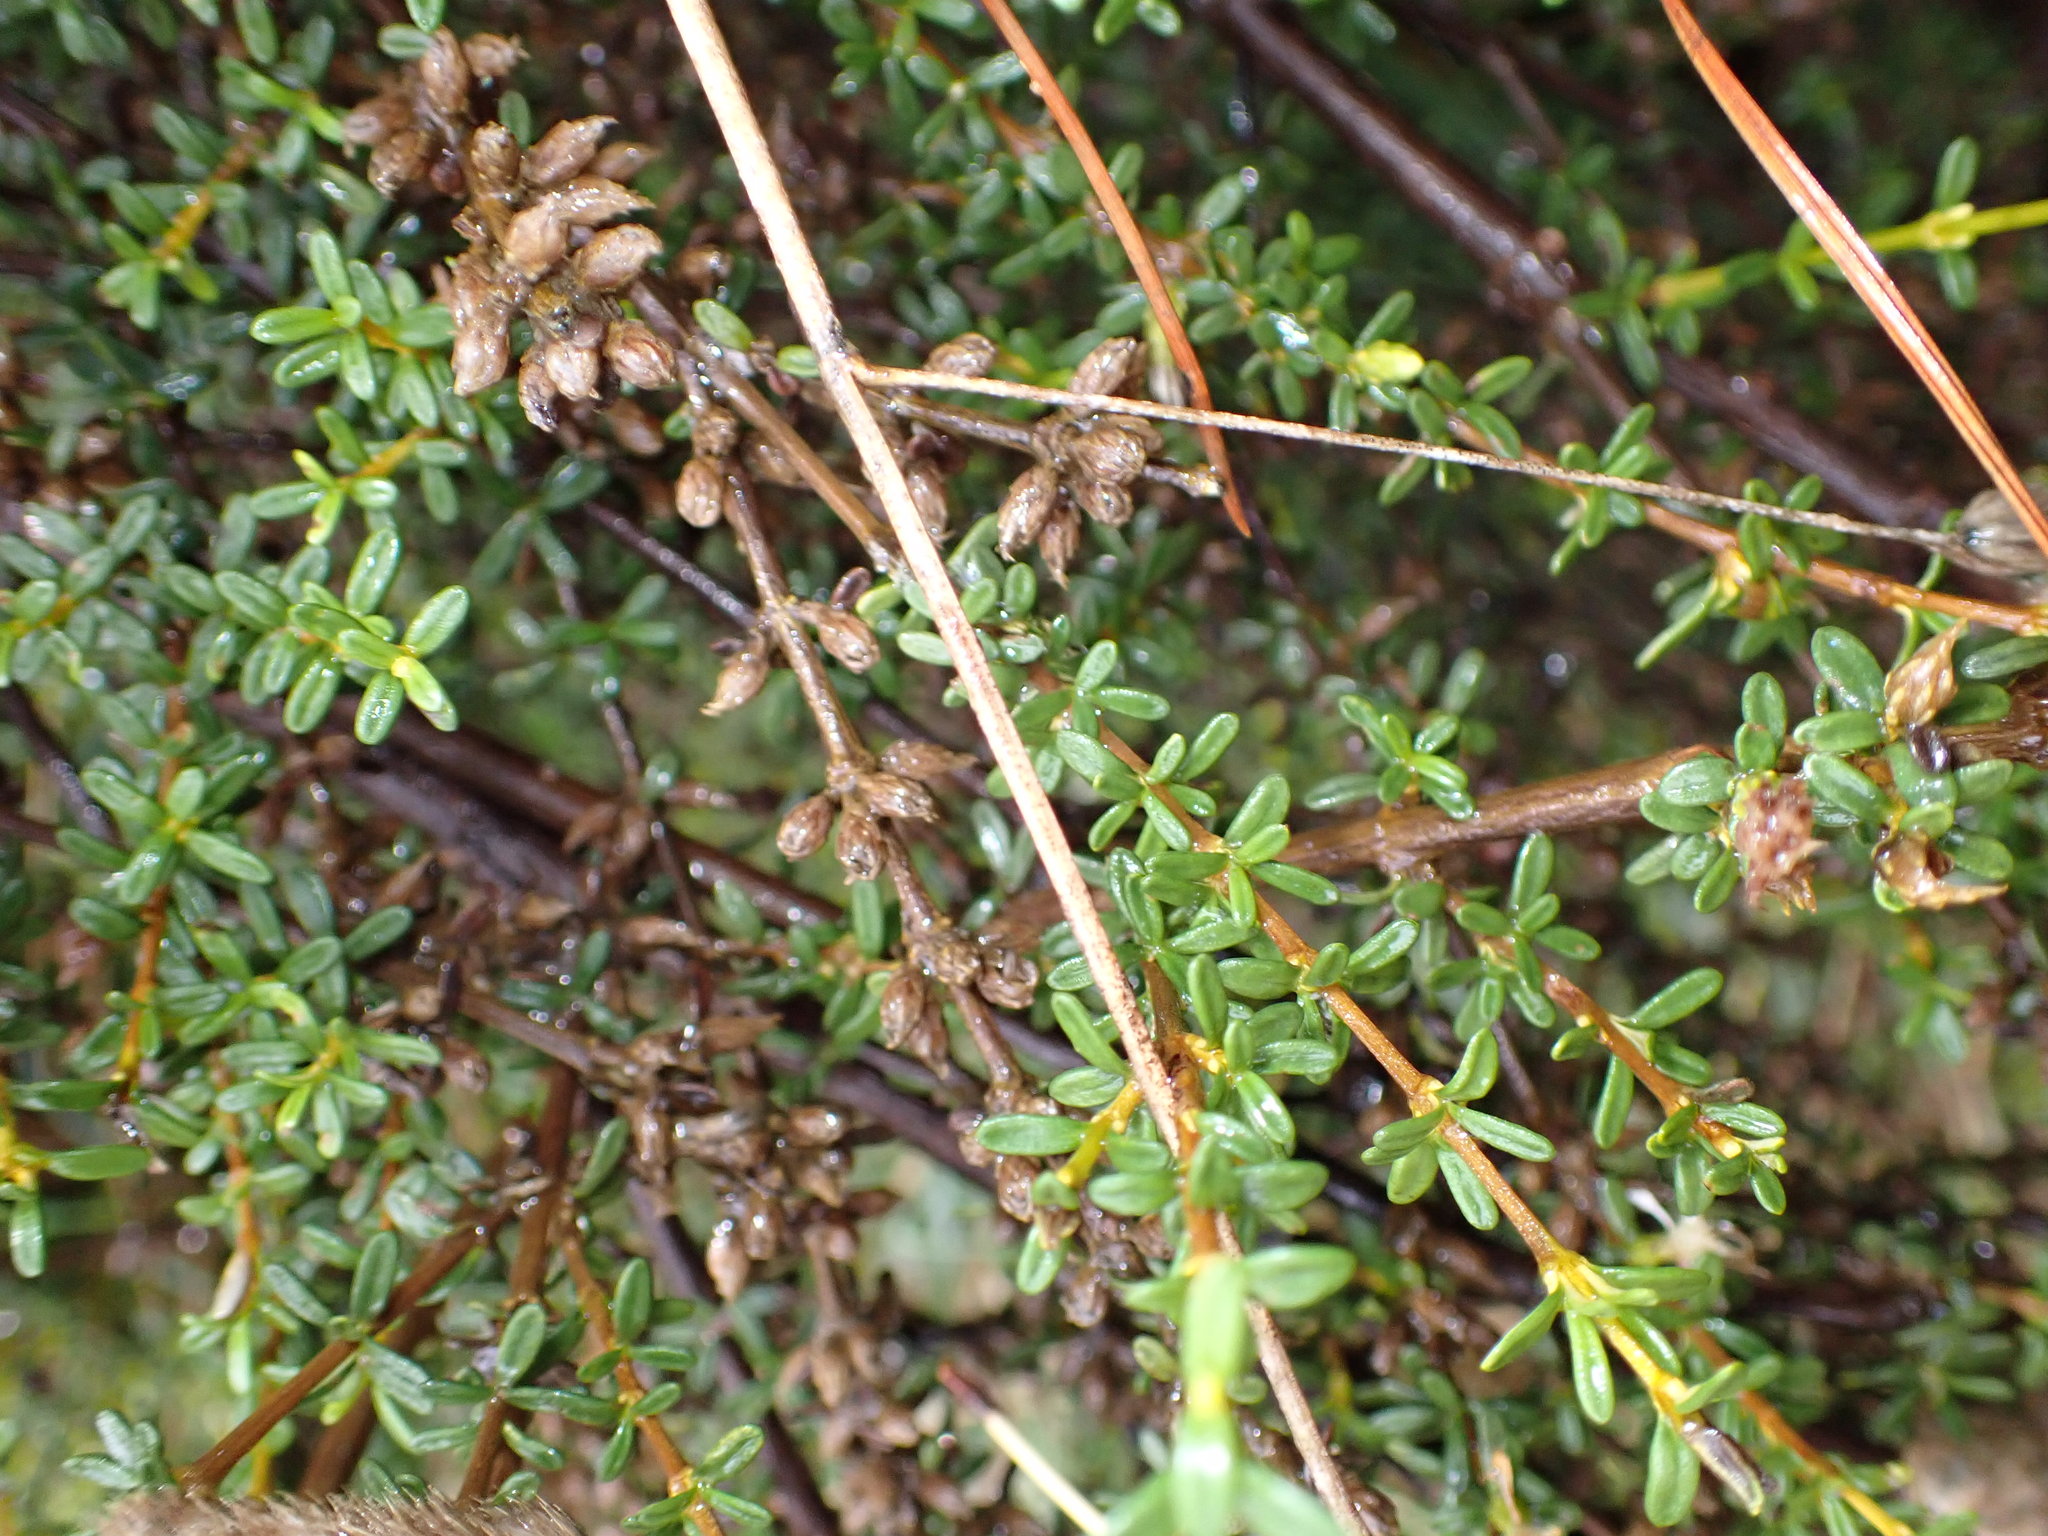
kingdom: Plantae
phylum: Tracheophyta
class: Magnoliopsida
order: Asterales
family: Asteraceae
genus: Olearia
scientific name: Olearia solandri
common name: Coastal daisybush
